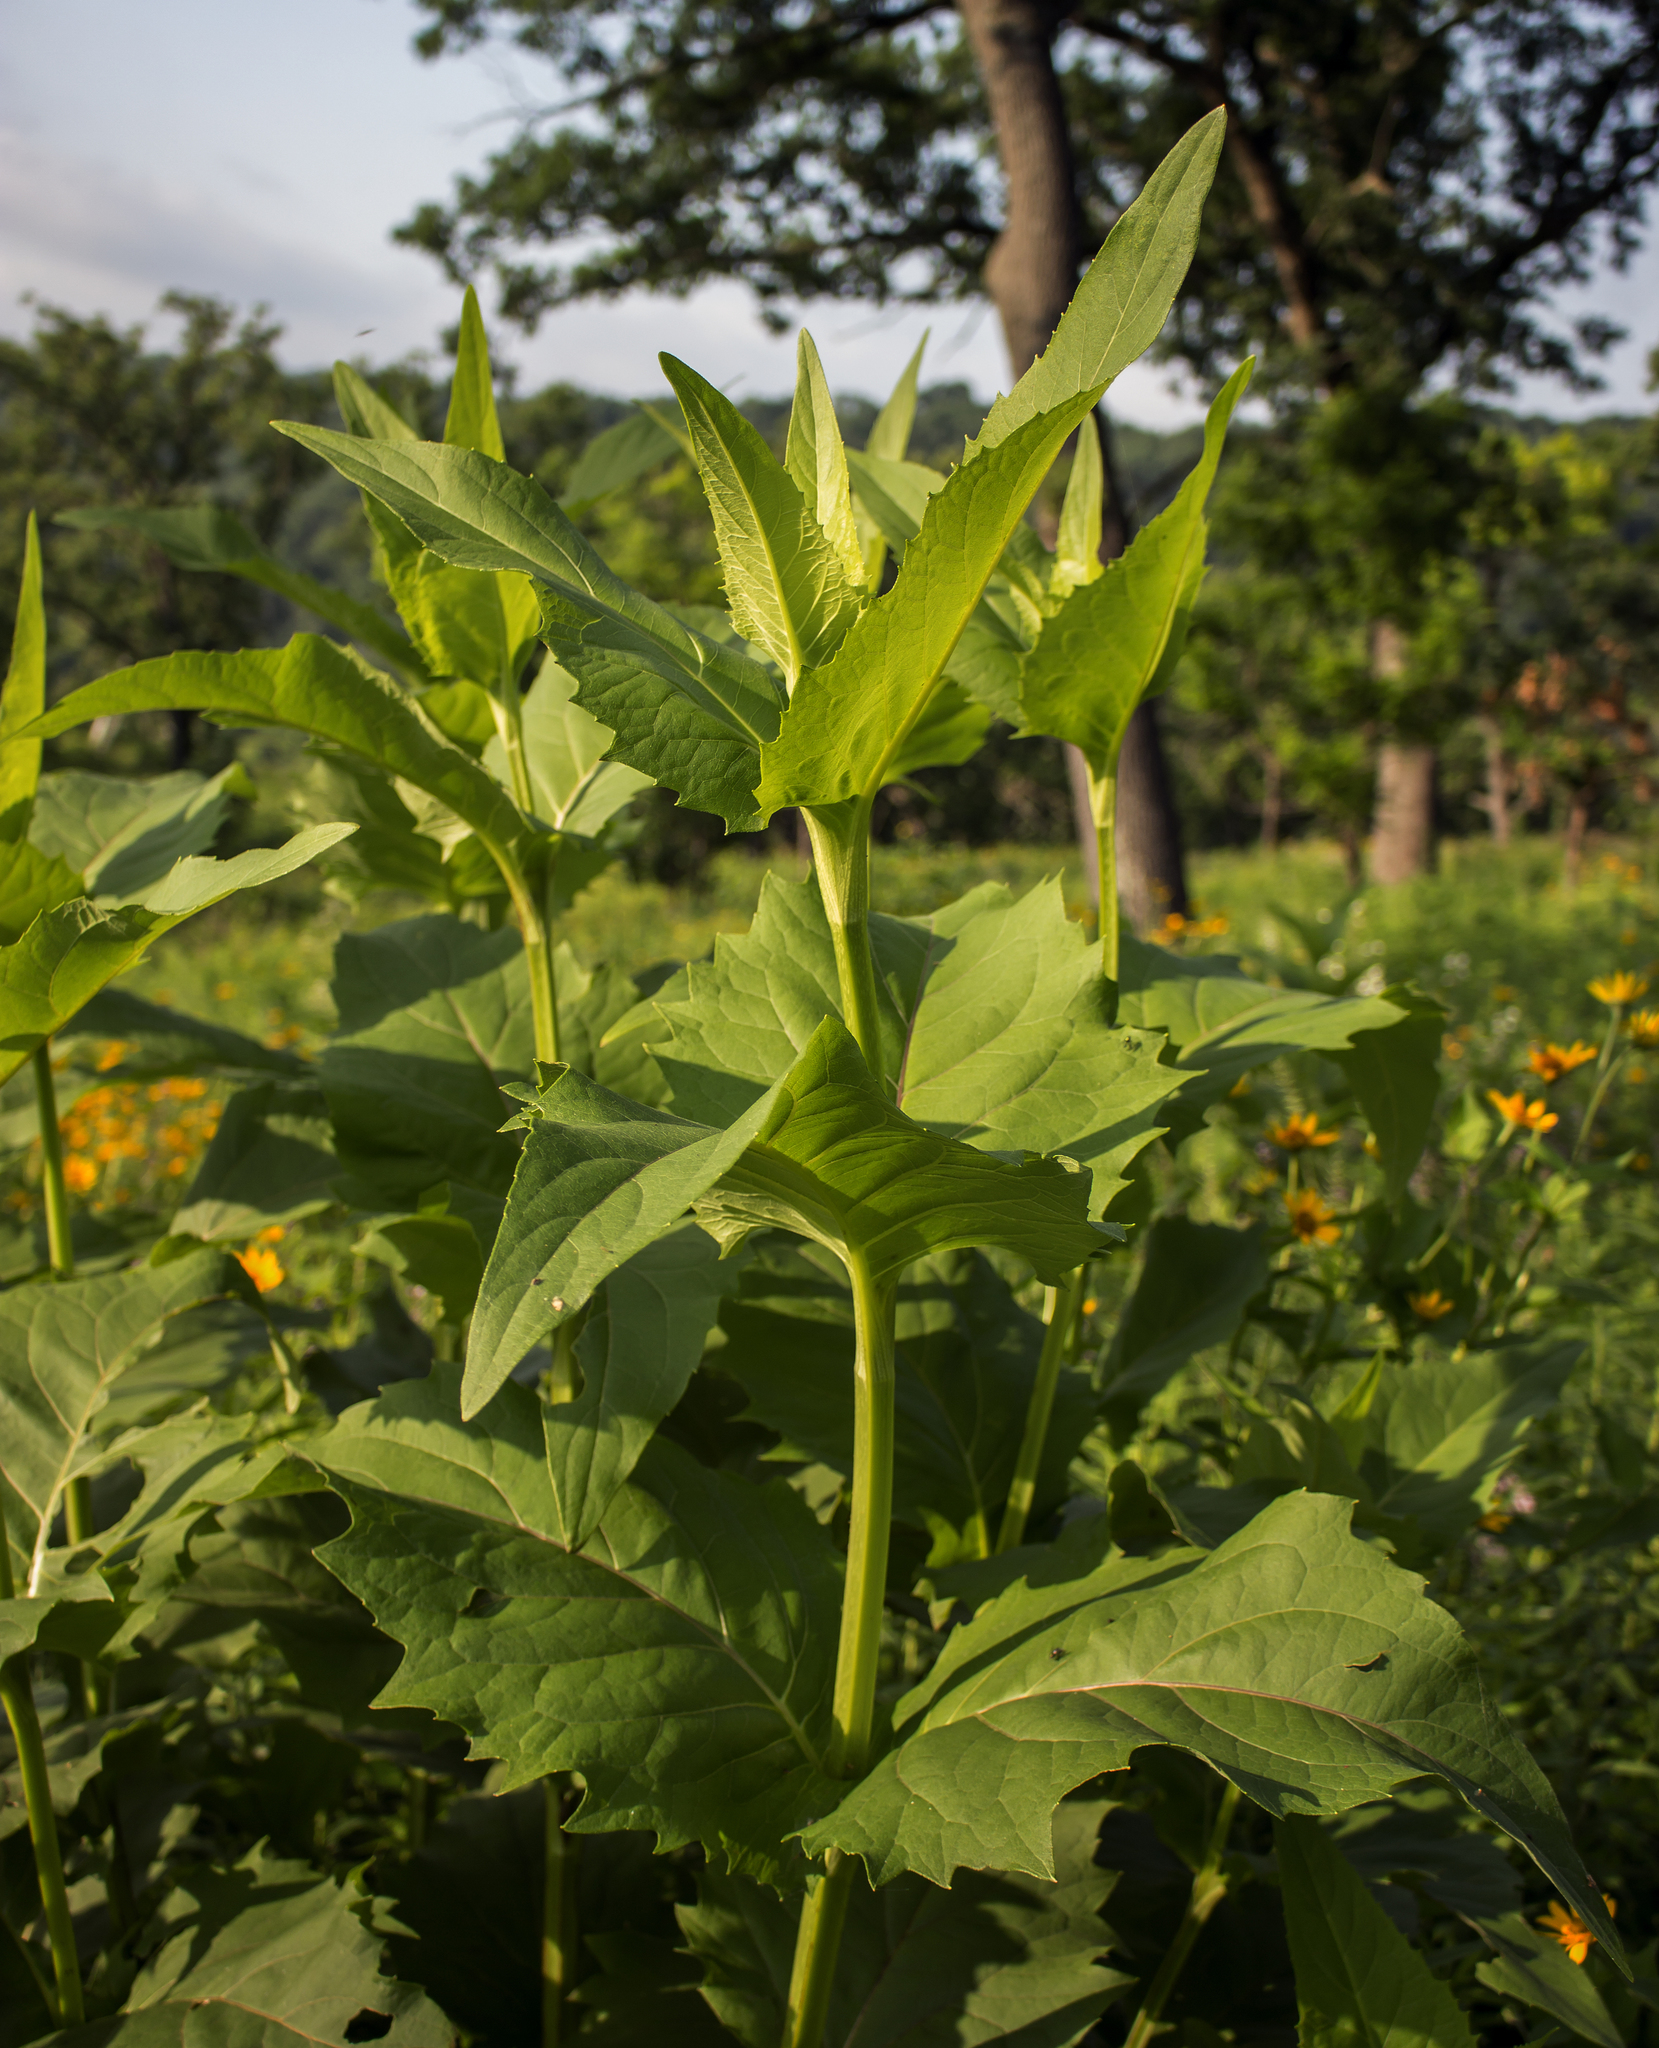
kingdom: Plantae
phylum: Tracheophyta
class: Magnoliopsida
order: Asterales
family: Asteraceae
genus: Silphium
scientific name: Silphium perfoliatum
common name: Cup-plant
